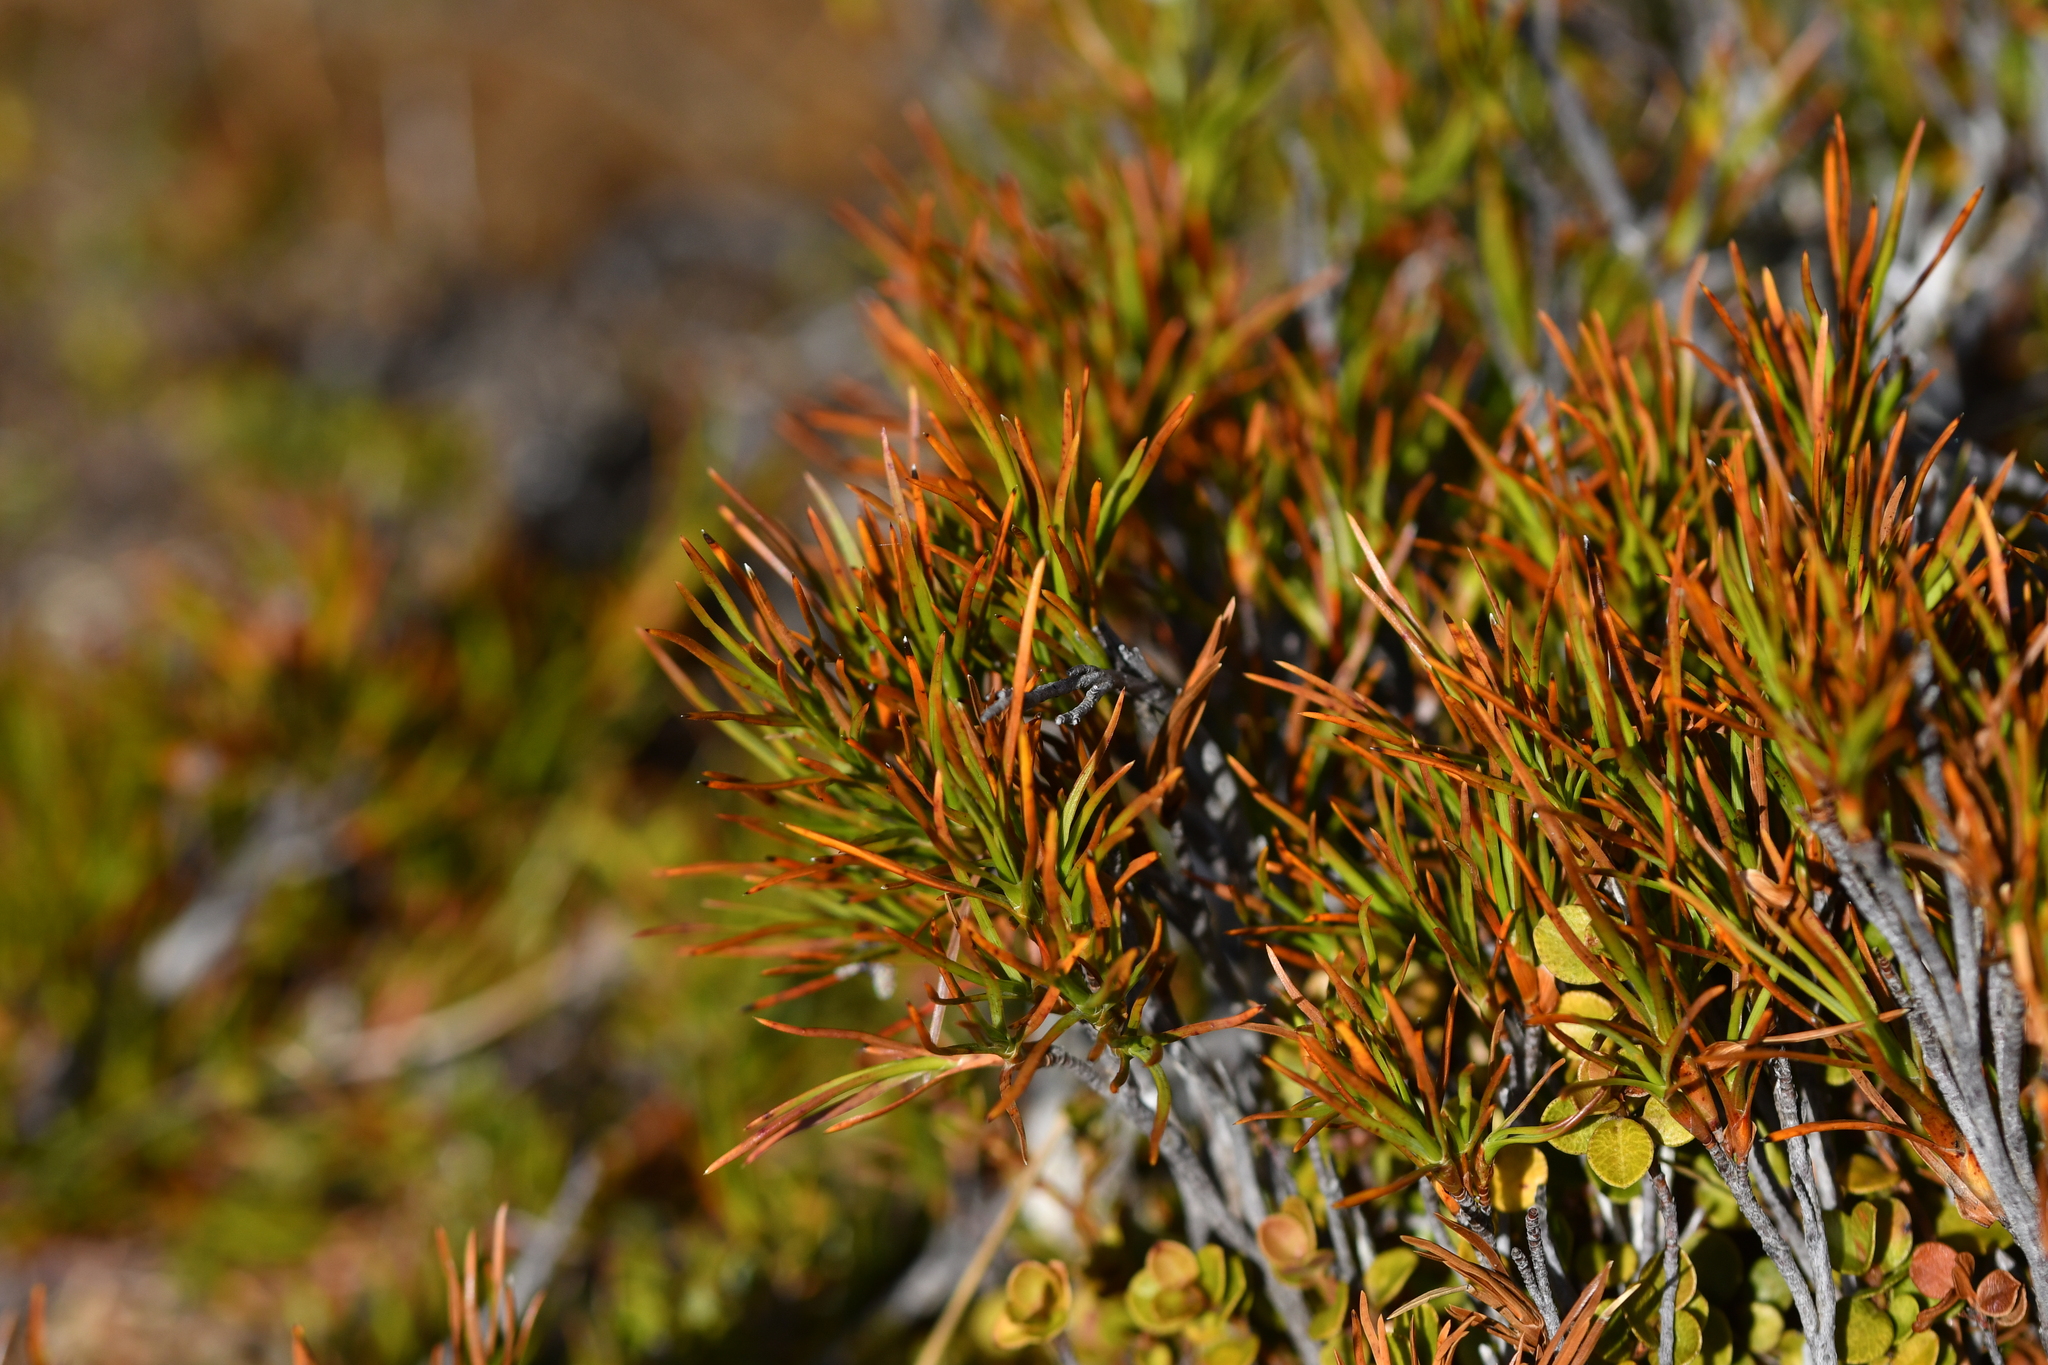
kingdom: Plantae
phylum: Tracheophyta
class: Magnoliopsida
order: Ericales
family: Ericaceae
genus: Dracophyllum
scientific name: Dracophyllum rosmarinifolium
